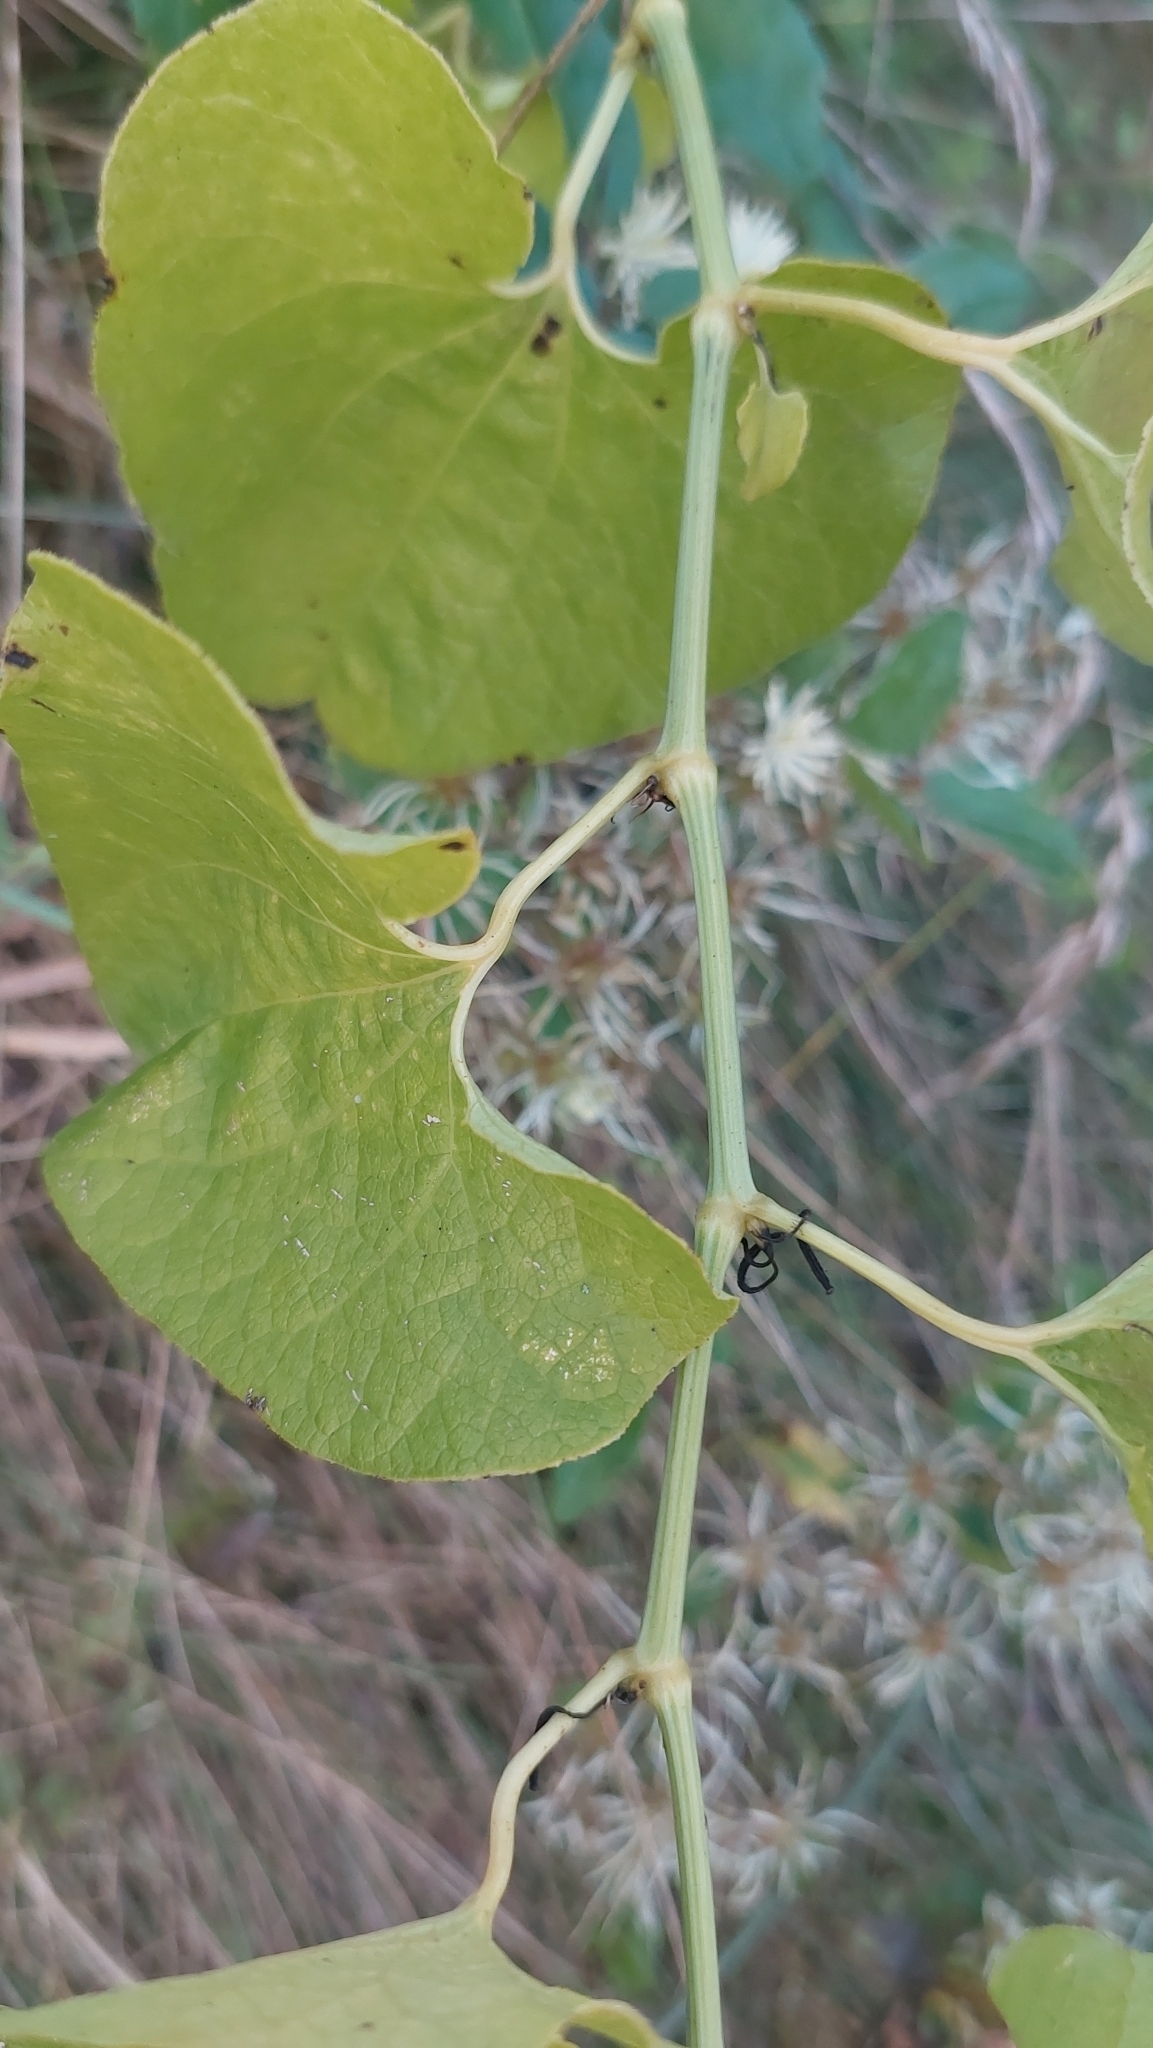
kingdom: Plantae
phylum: Tracheophyta
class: Magnoliopsida
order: Piperales
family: Aristolochiaceae
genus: Aristolochia
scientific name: Aristolochia clematitis
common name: Birthwort
